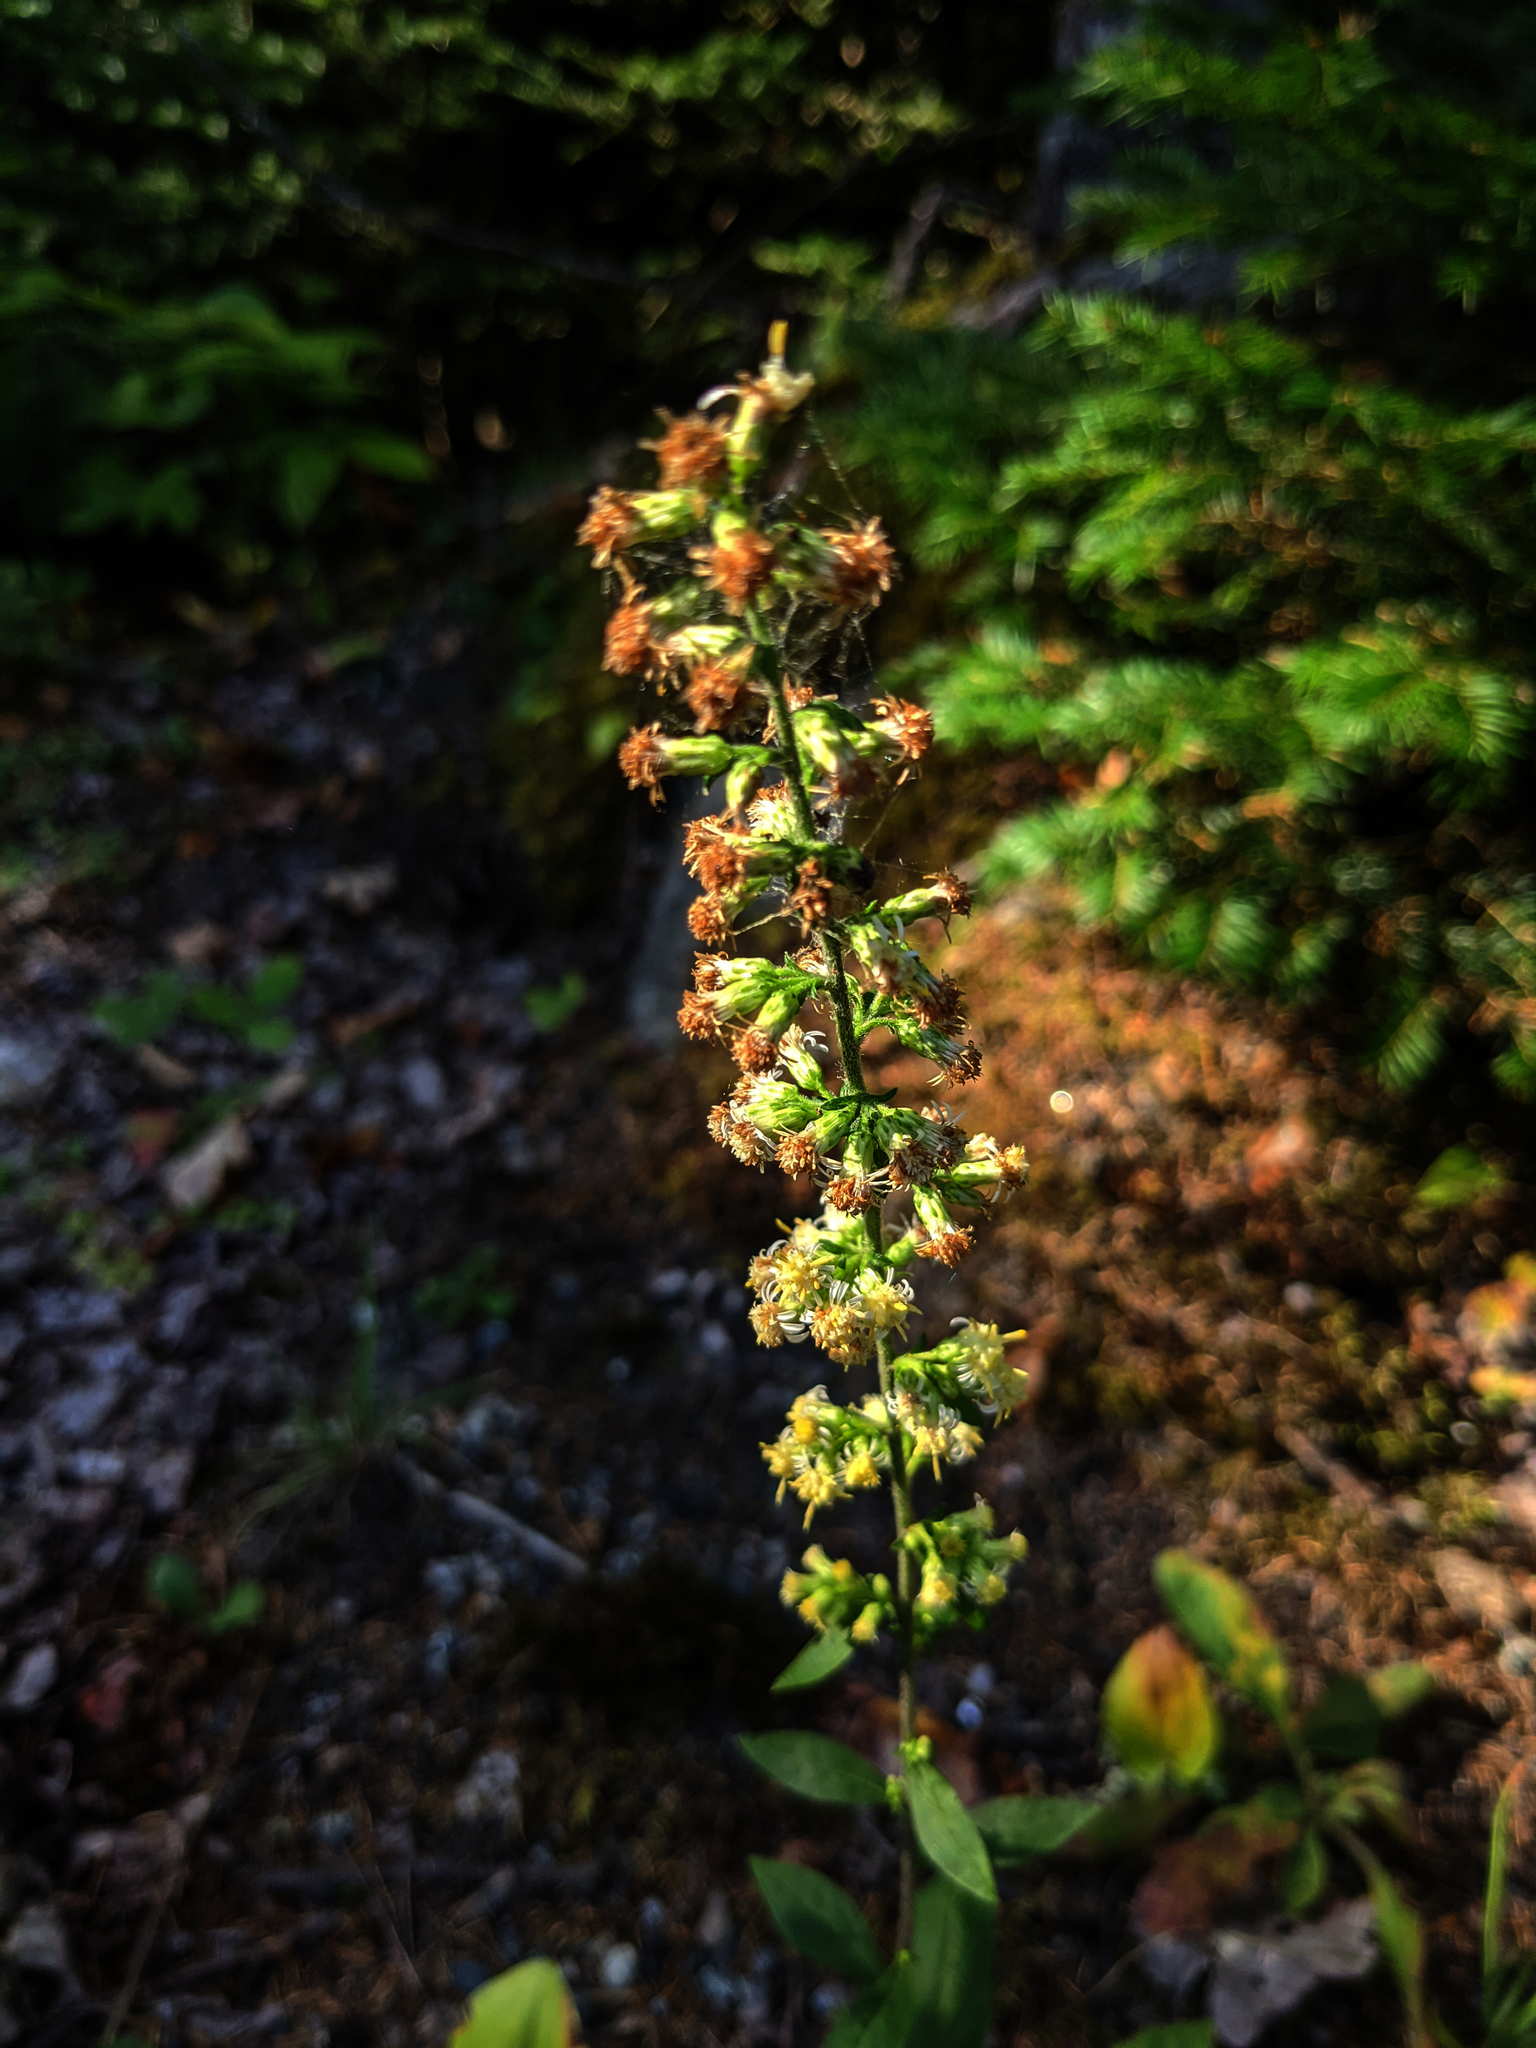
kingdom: Plantae
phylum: Tracheophyta
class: Magnoliopsida
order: Asterales
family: Asteraceae
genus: Solidago
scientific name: Solidago bicolor
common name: Silverrod
